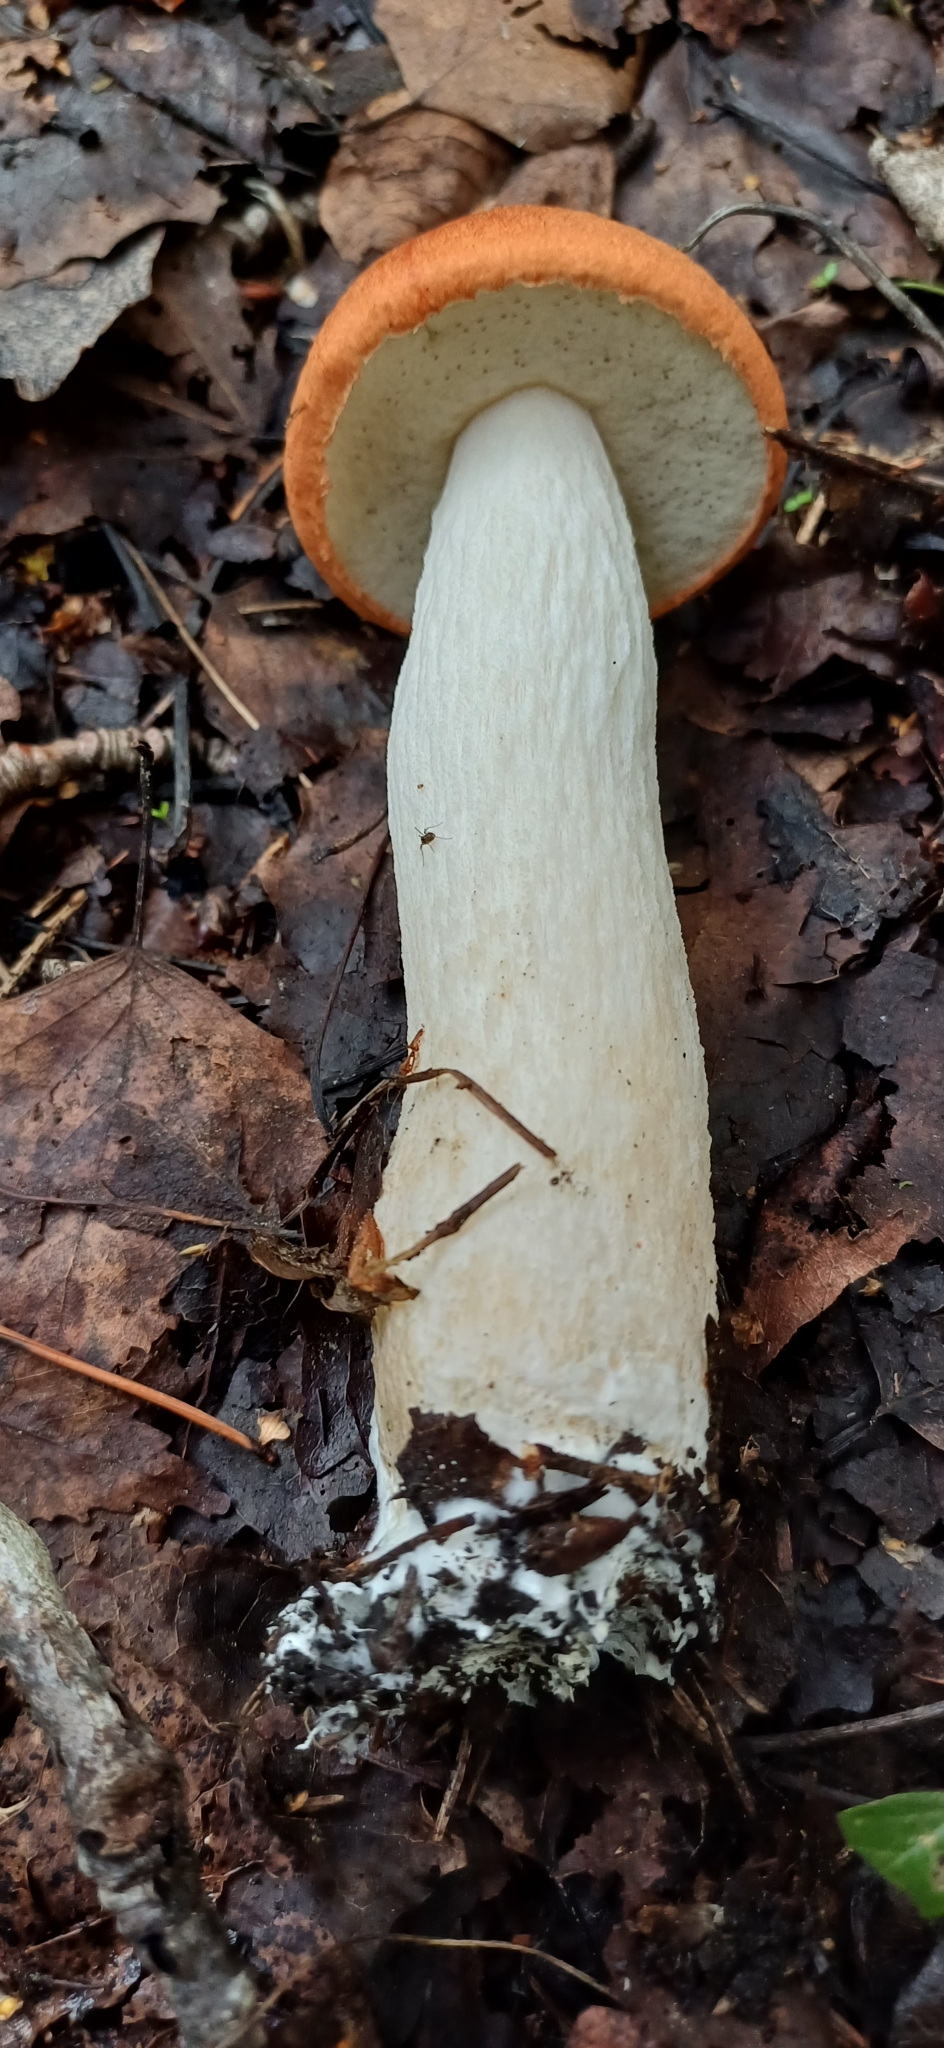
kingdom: Fungi
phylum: Basidiomycota
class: Agaricomycetes
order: Boletales
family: Boletaceae
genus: Leccinum
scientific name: Leccinum albostipitatum
